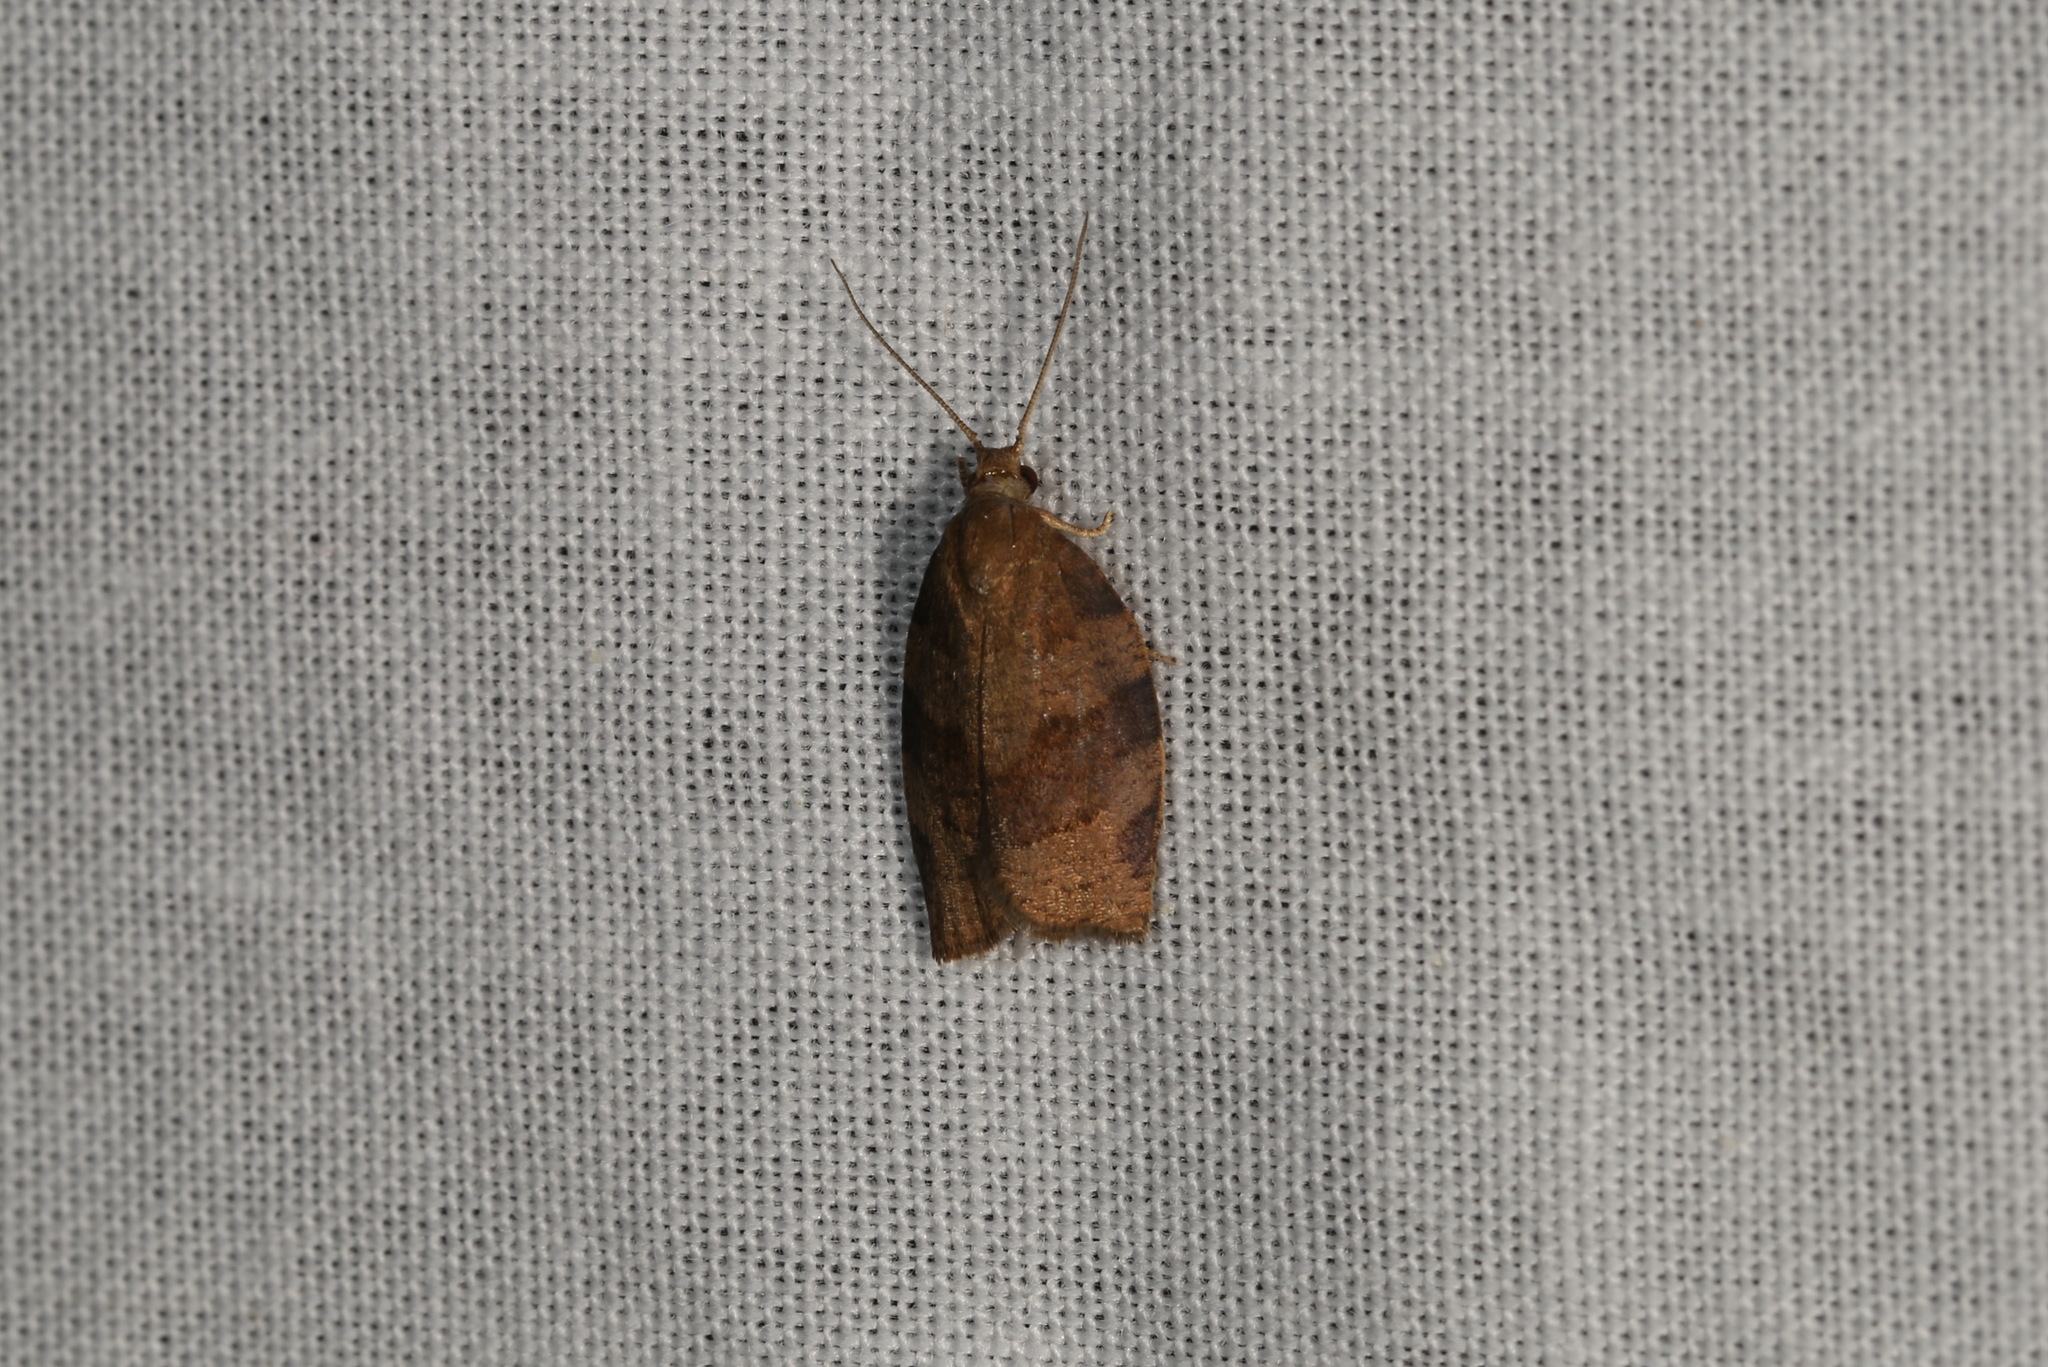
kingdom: Animalia
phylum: Arthropoda
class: Insecta
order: Lepidoptera
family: Tortricidae
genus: Pandemis
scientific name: Pandemis heparana
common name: Dark fruit-tree tortrix
